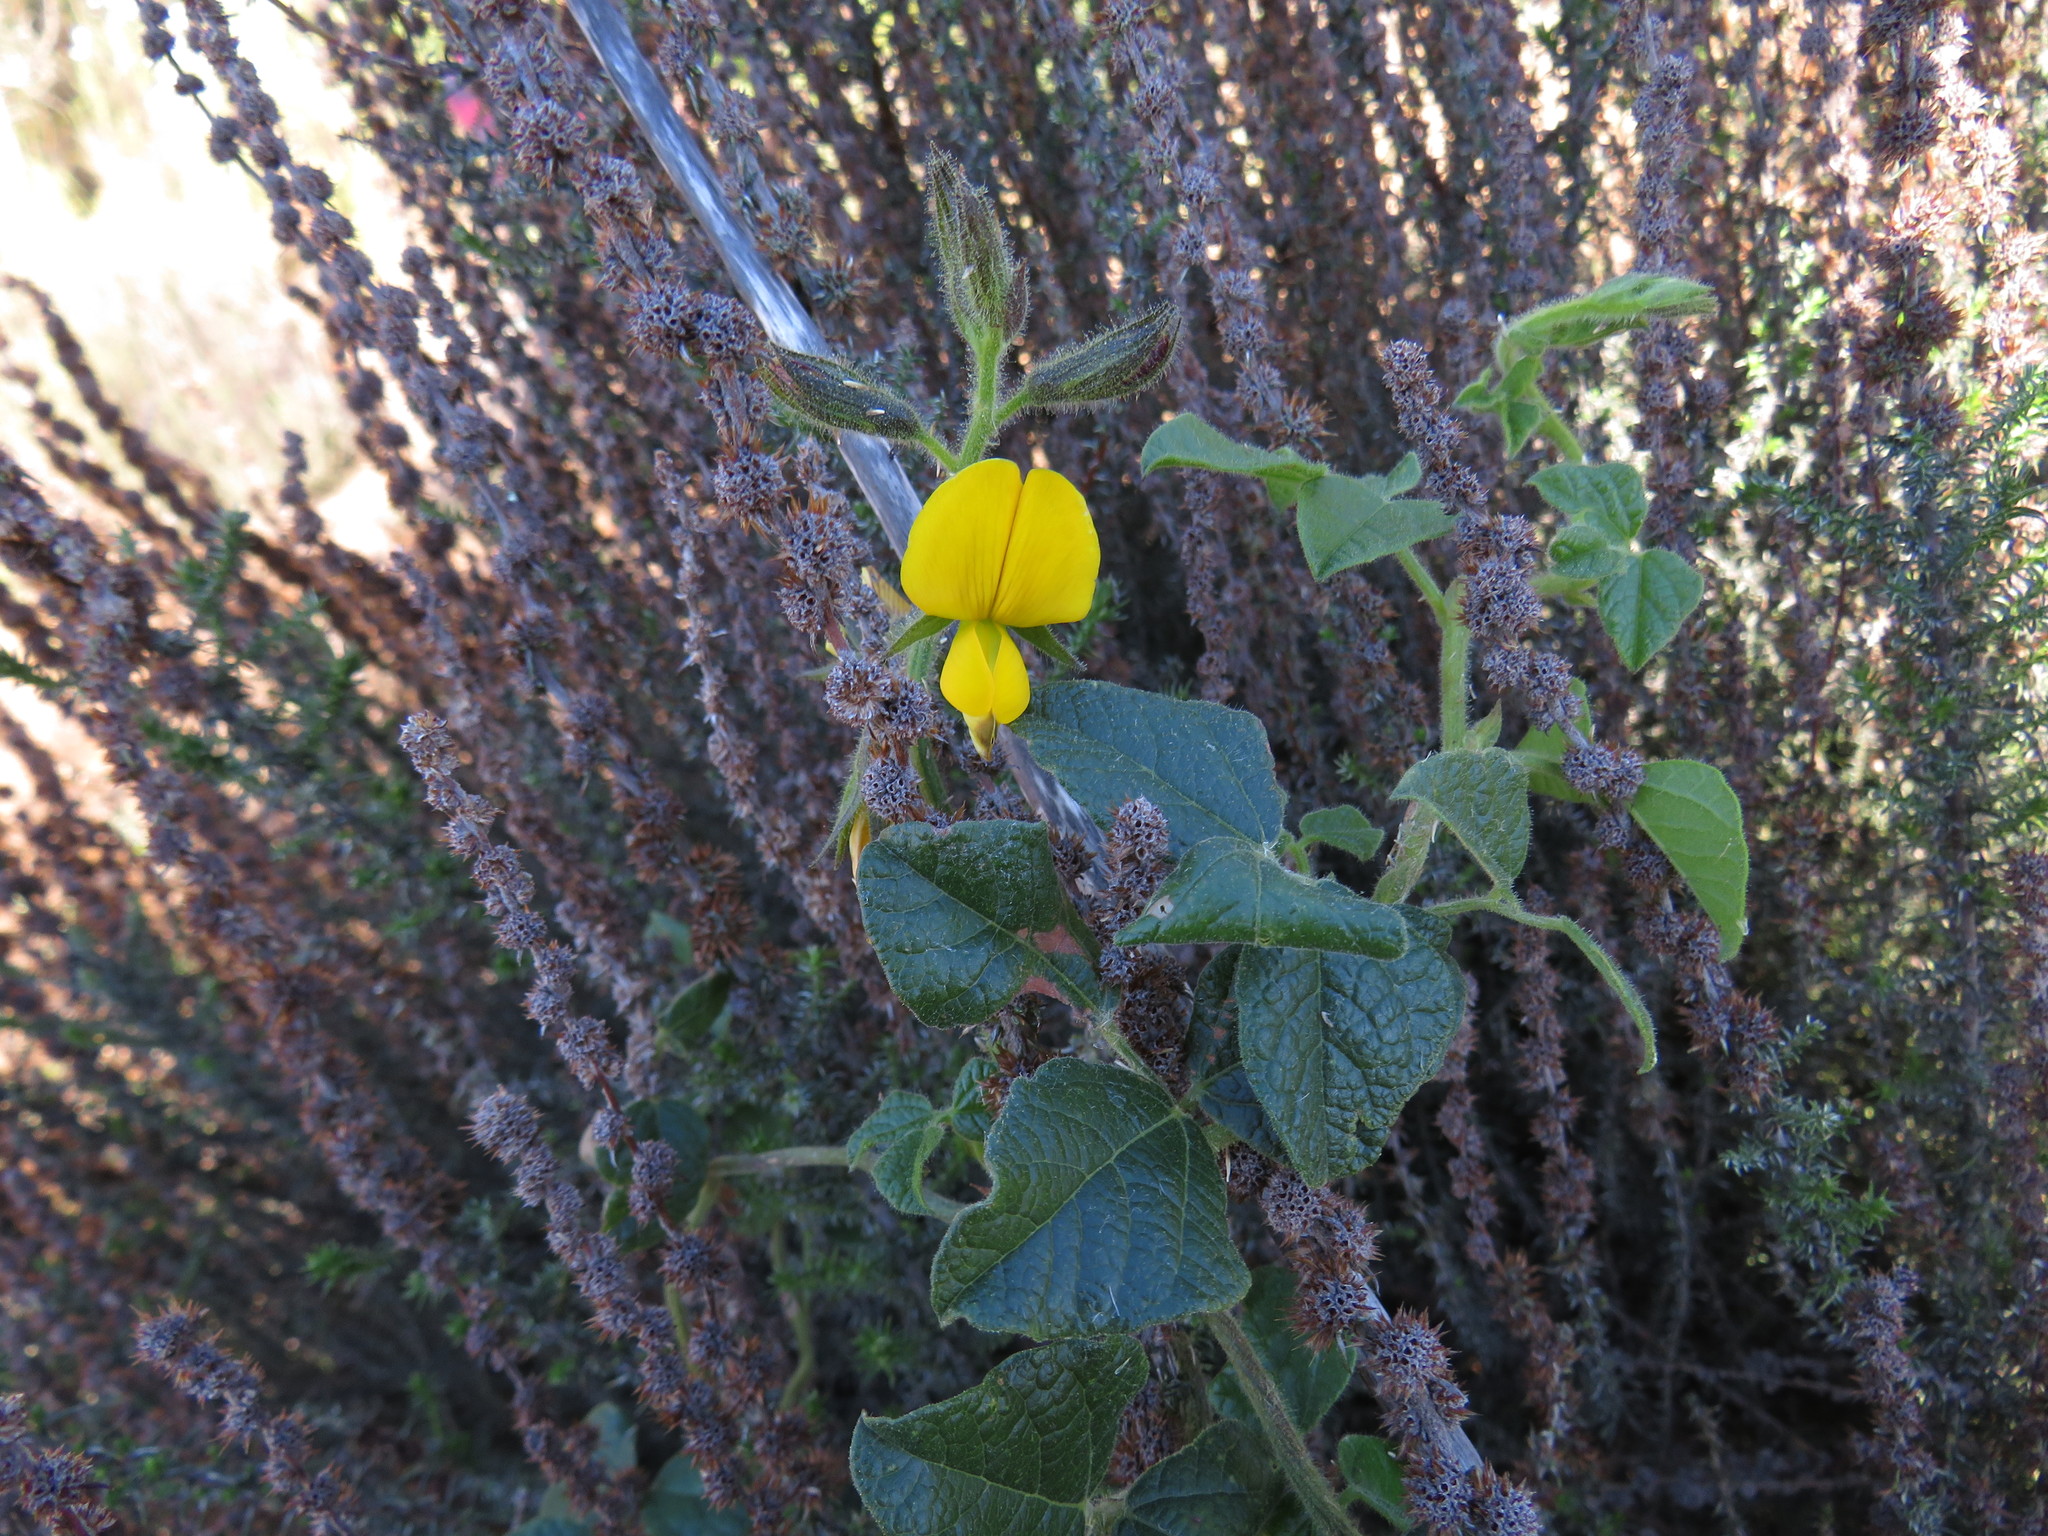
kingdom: Plantae
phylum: Tracheophyta
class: Magnoliopsida
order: Fabales
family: Fabaceae
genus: Bolusafra
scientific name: Bolusafra bituminosa
